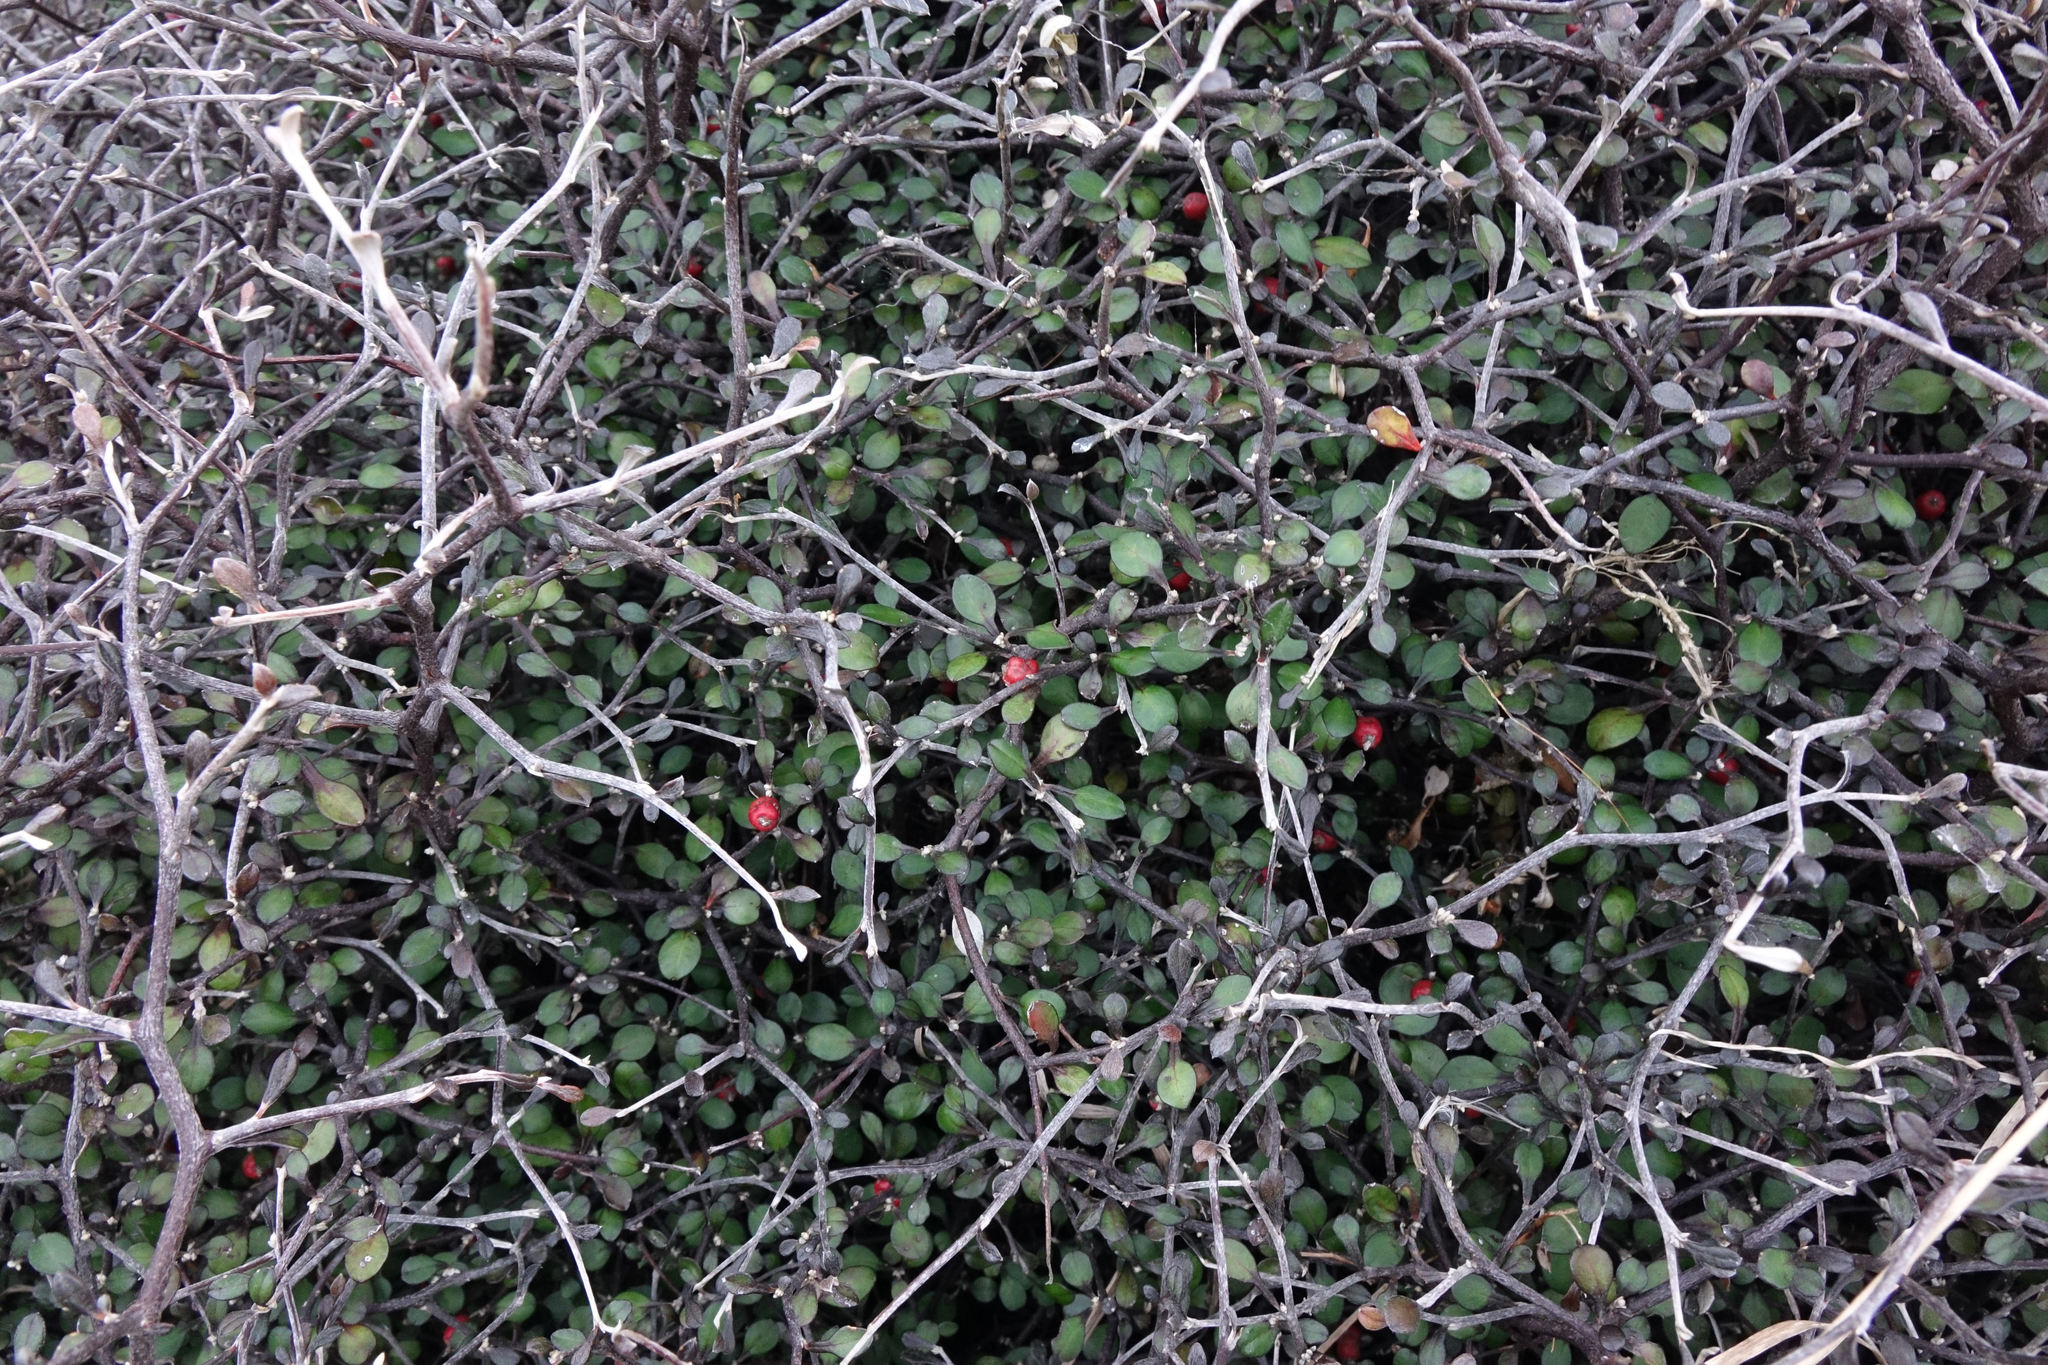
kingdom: Plantae
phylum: Tracheophyta
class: Magnoliopsida
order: Asterales
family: Argophyllaceae
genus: Corokia
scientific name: Corokia cotoneaster
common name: Wire nettingbush
